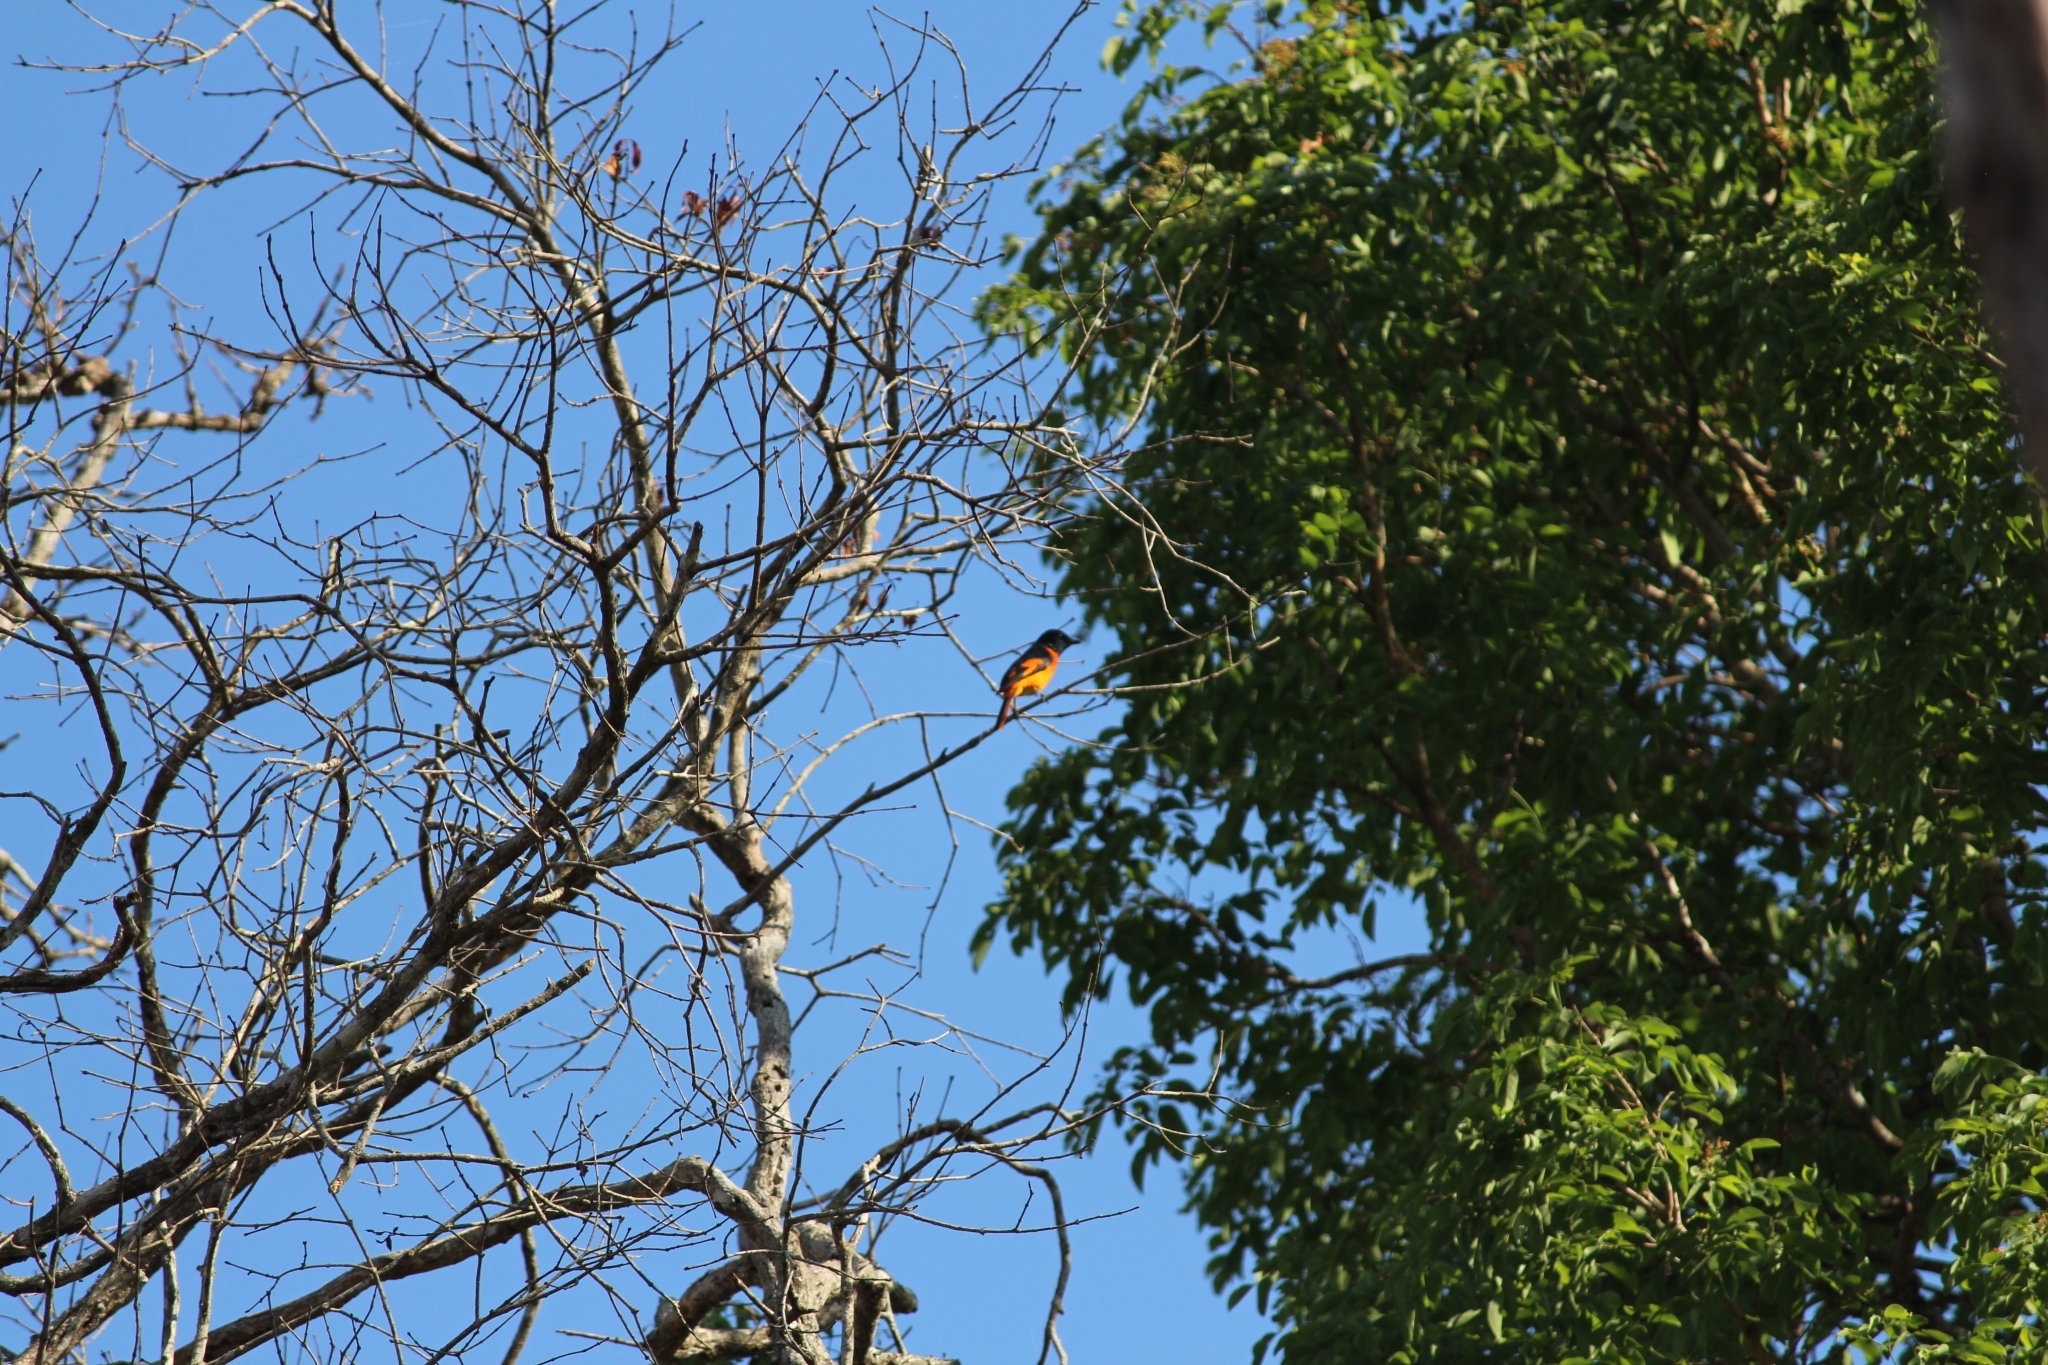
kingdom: Animalia
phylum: Chordata
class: Aves
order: Passeriformes
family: Campephagidae
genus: Pericrocotus
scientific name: Pericrocotus flammeus
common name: Orange minivet
